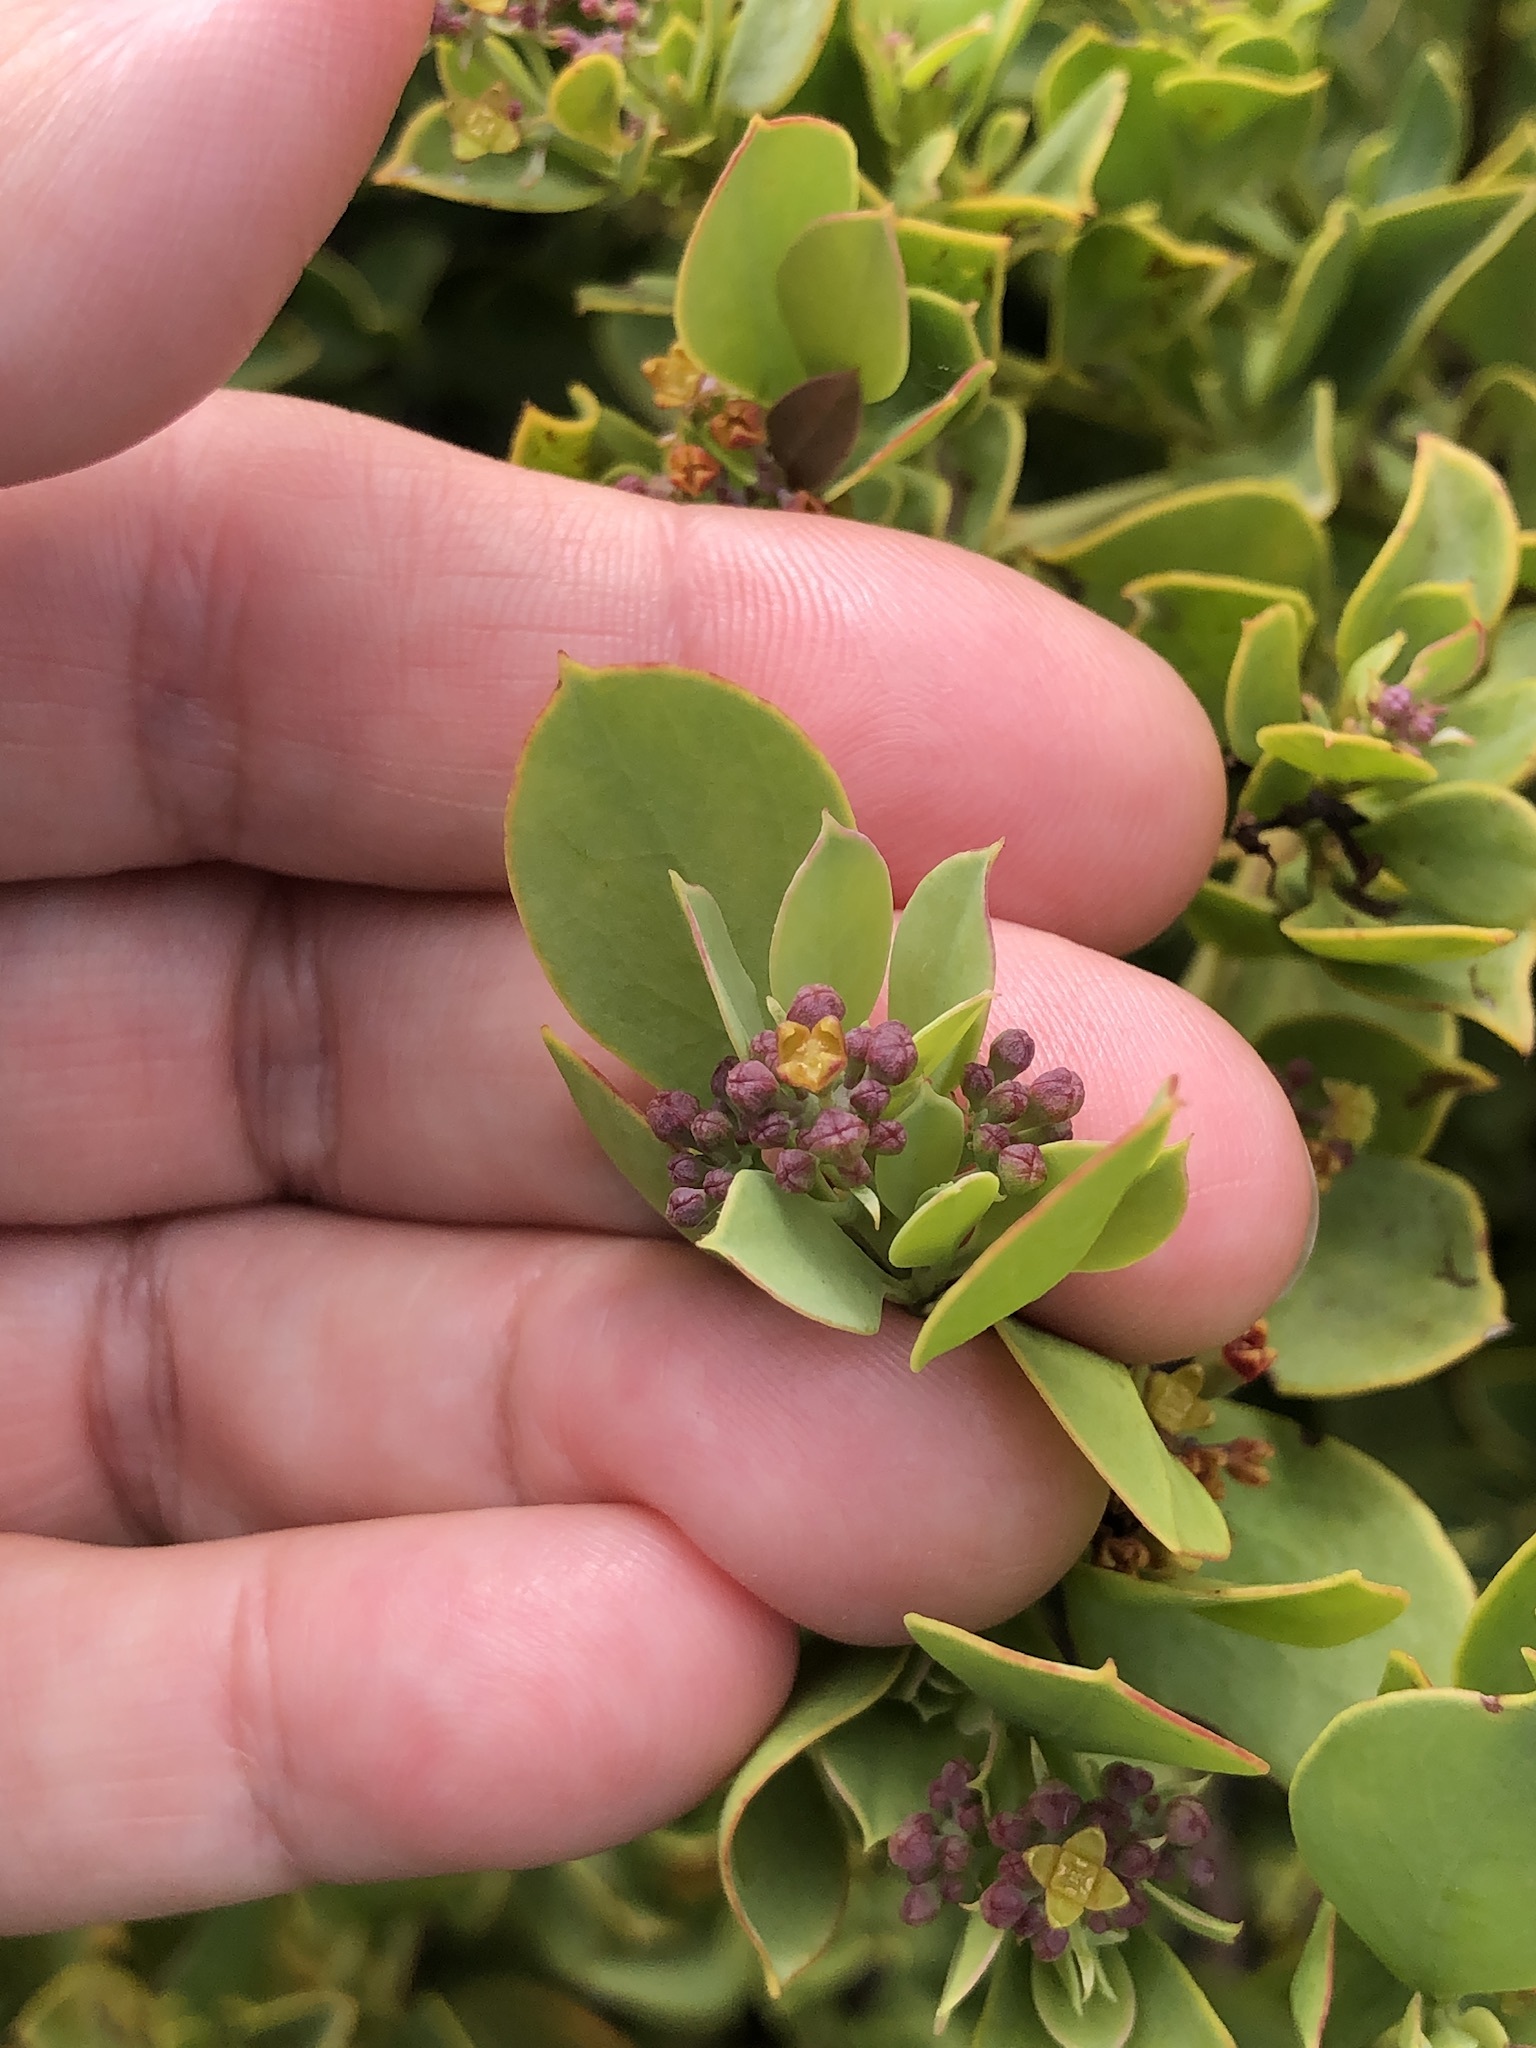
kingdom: Plantae
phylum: Tracheophyta
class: Magnoliopsida
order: Santalales
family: Santalaceae
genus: Osyris
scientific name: Osyris compressa
